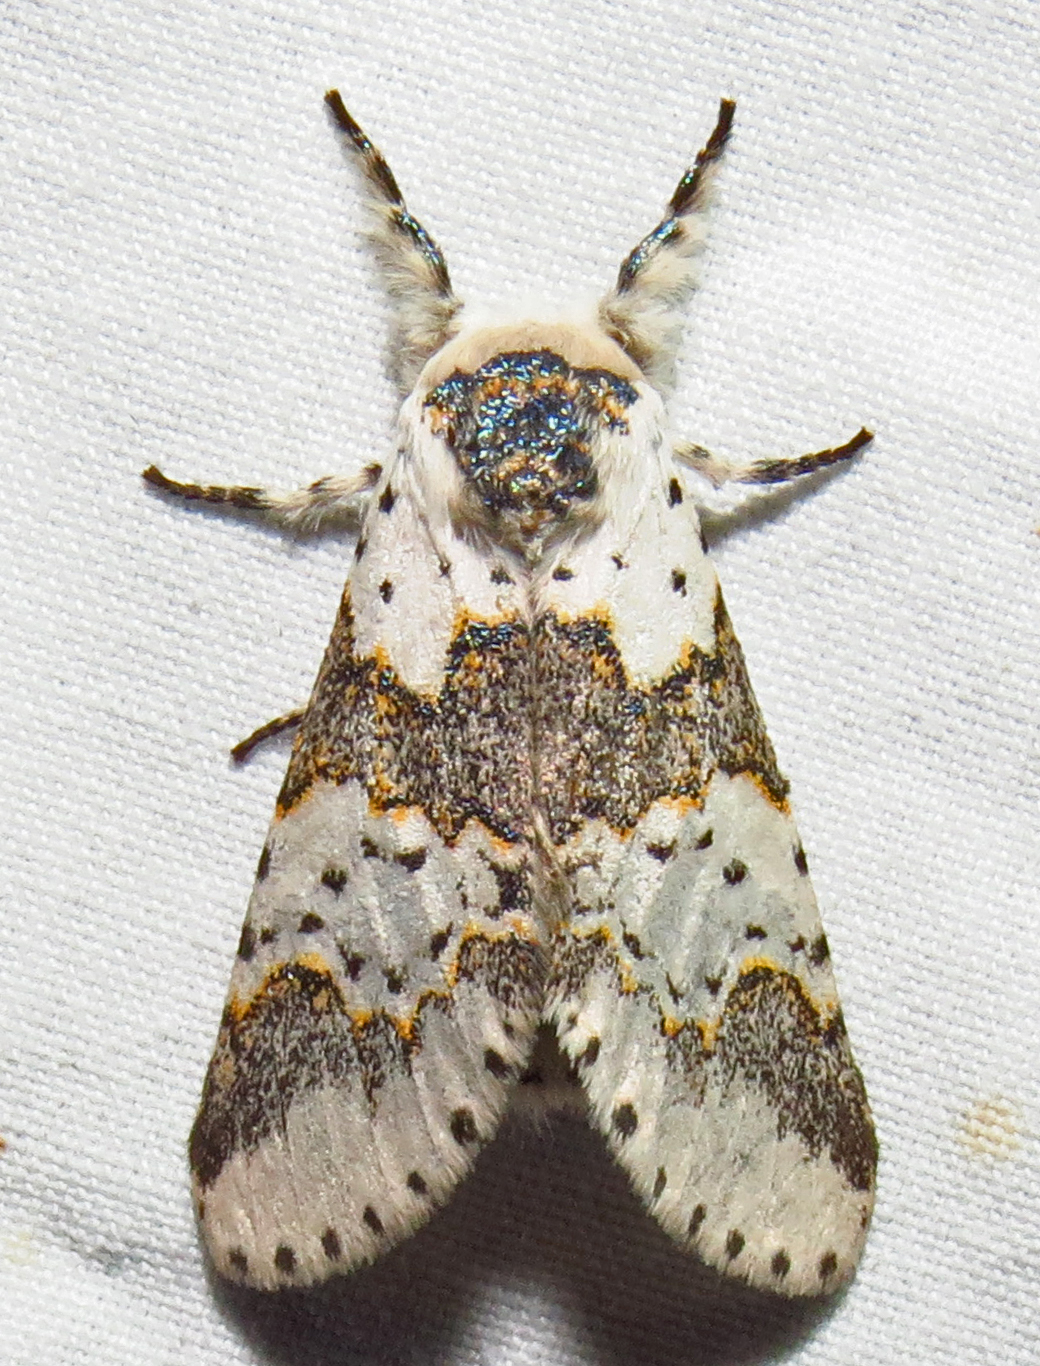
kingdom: Animalia
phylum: Arthropoda
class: Insecta
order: Lepidoptera
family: Notodontidae
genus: Furcula
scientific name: Furcula borealis
